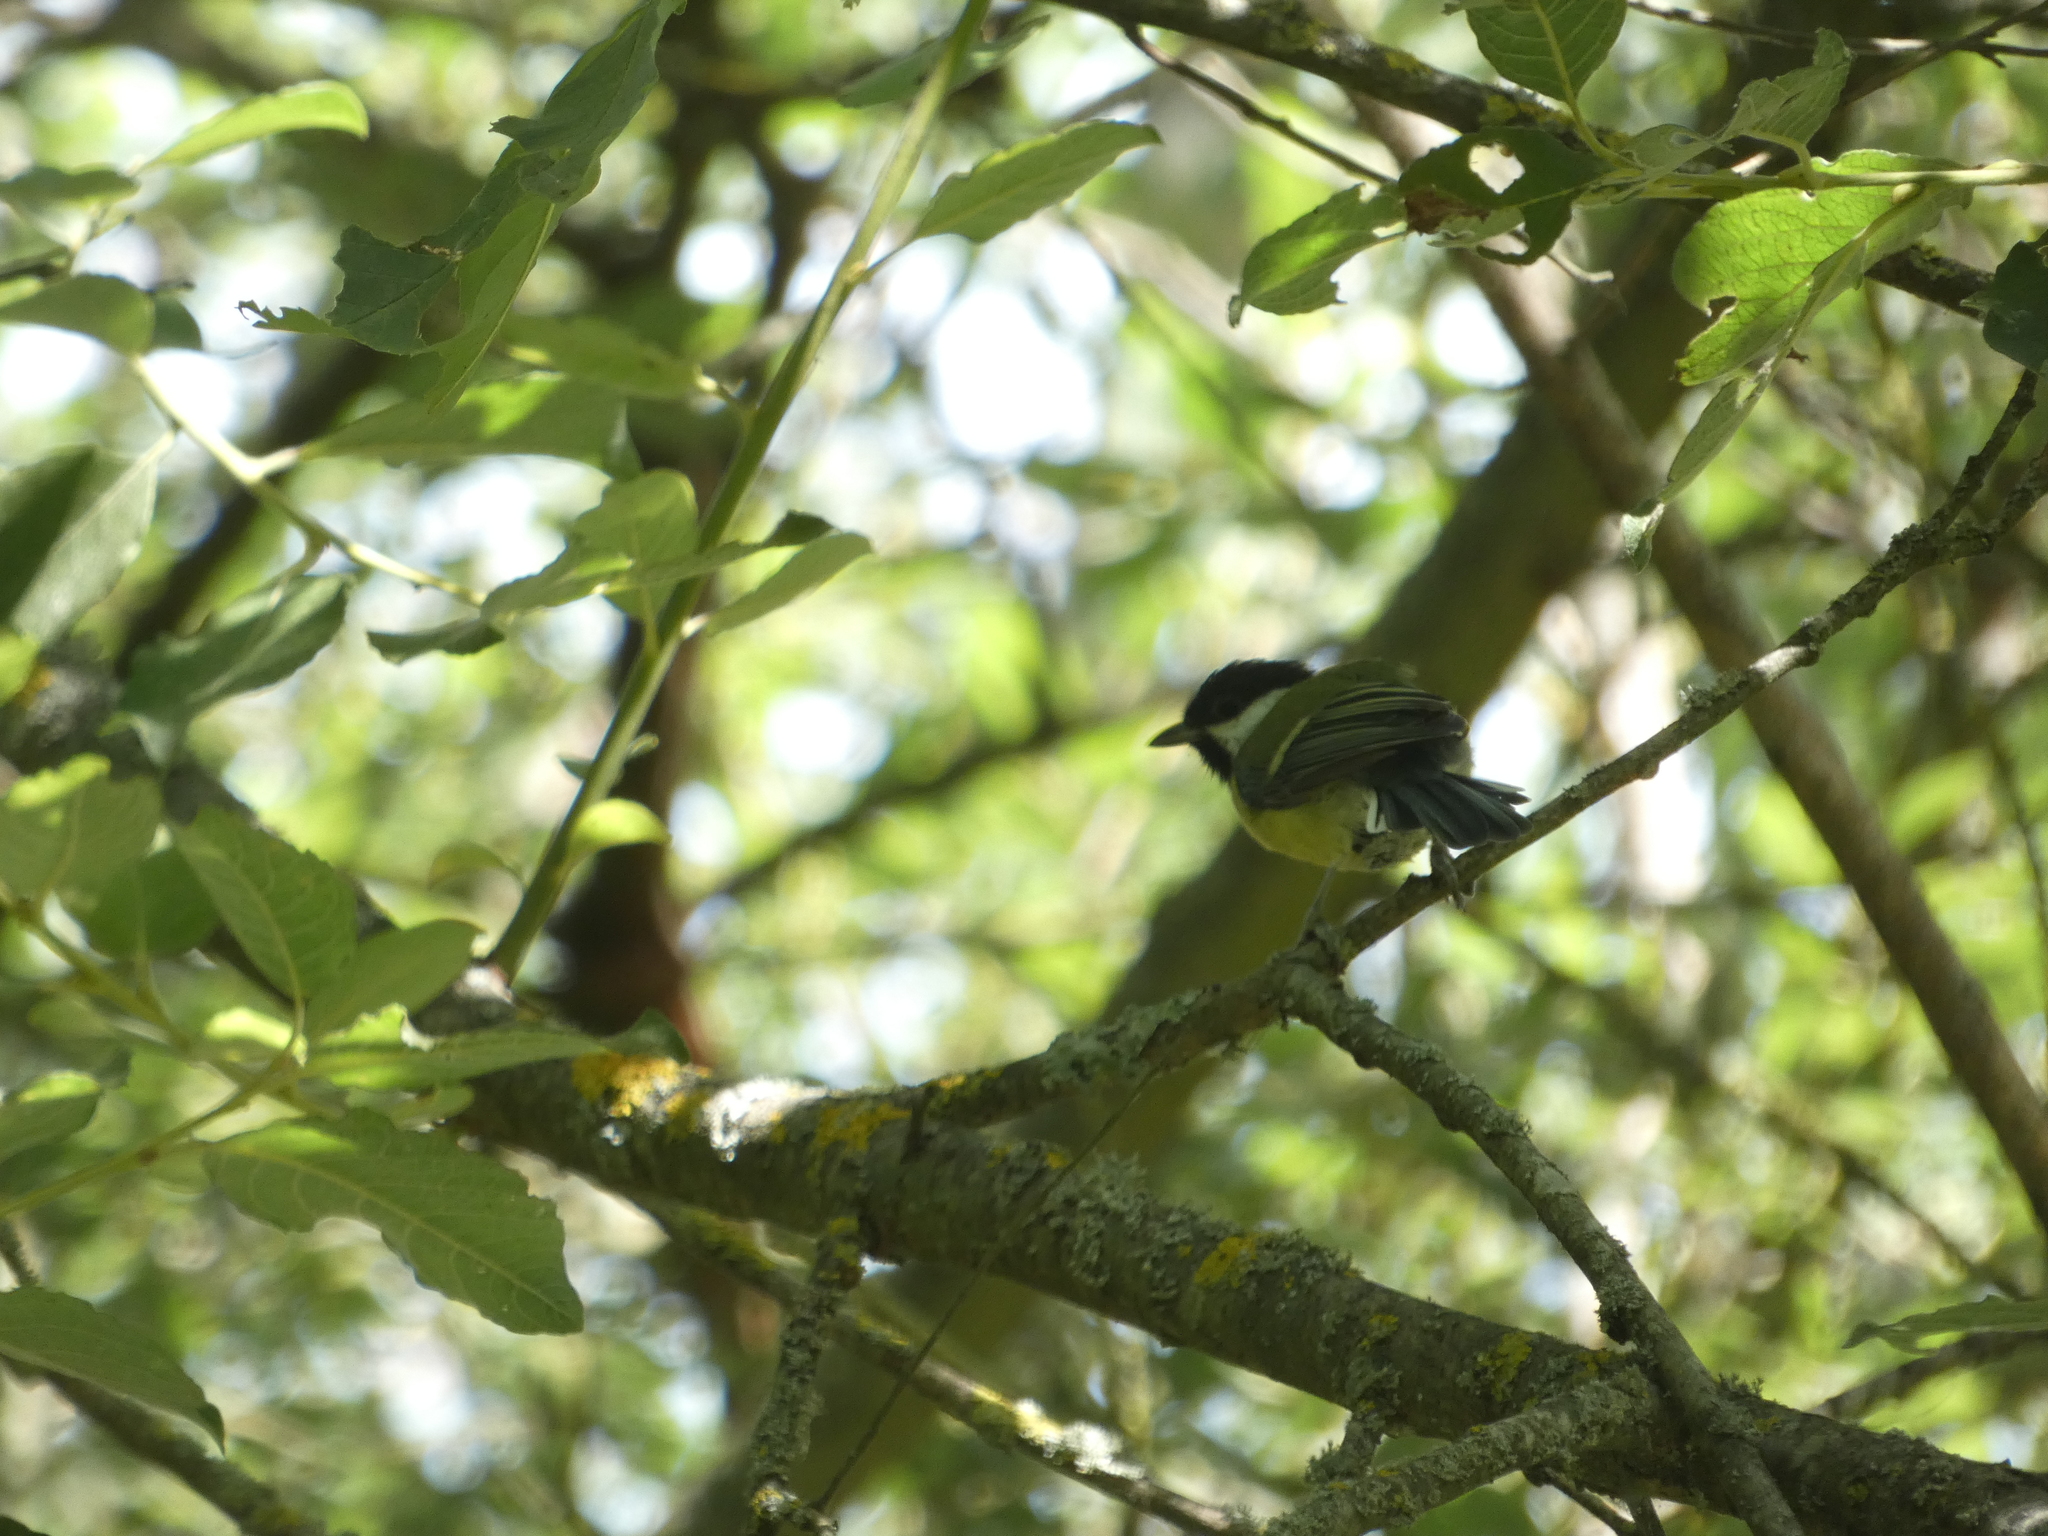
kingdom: Animalia
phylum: Chordata
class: Aves
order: Passeriformes
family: Paridae
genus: Parus
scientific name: Parus major
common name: Great tit
